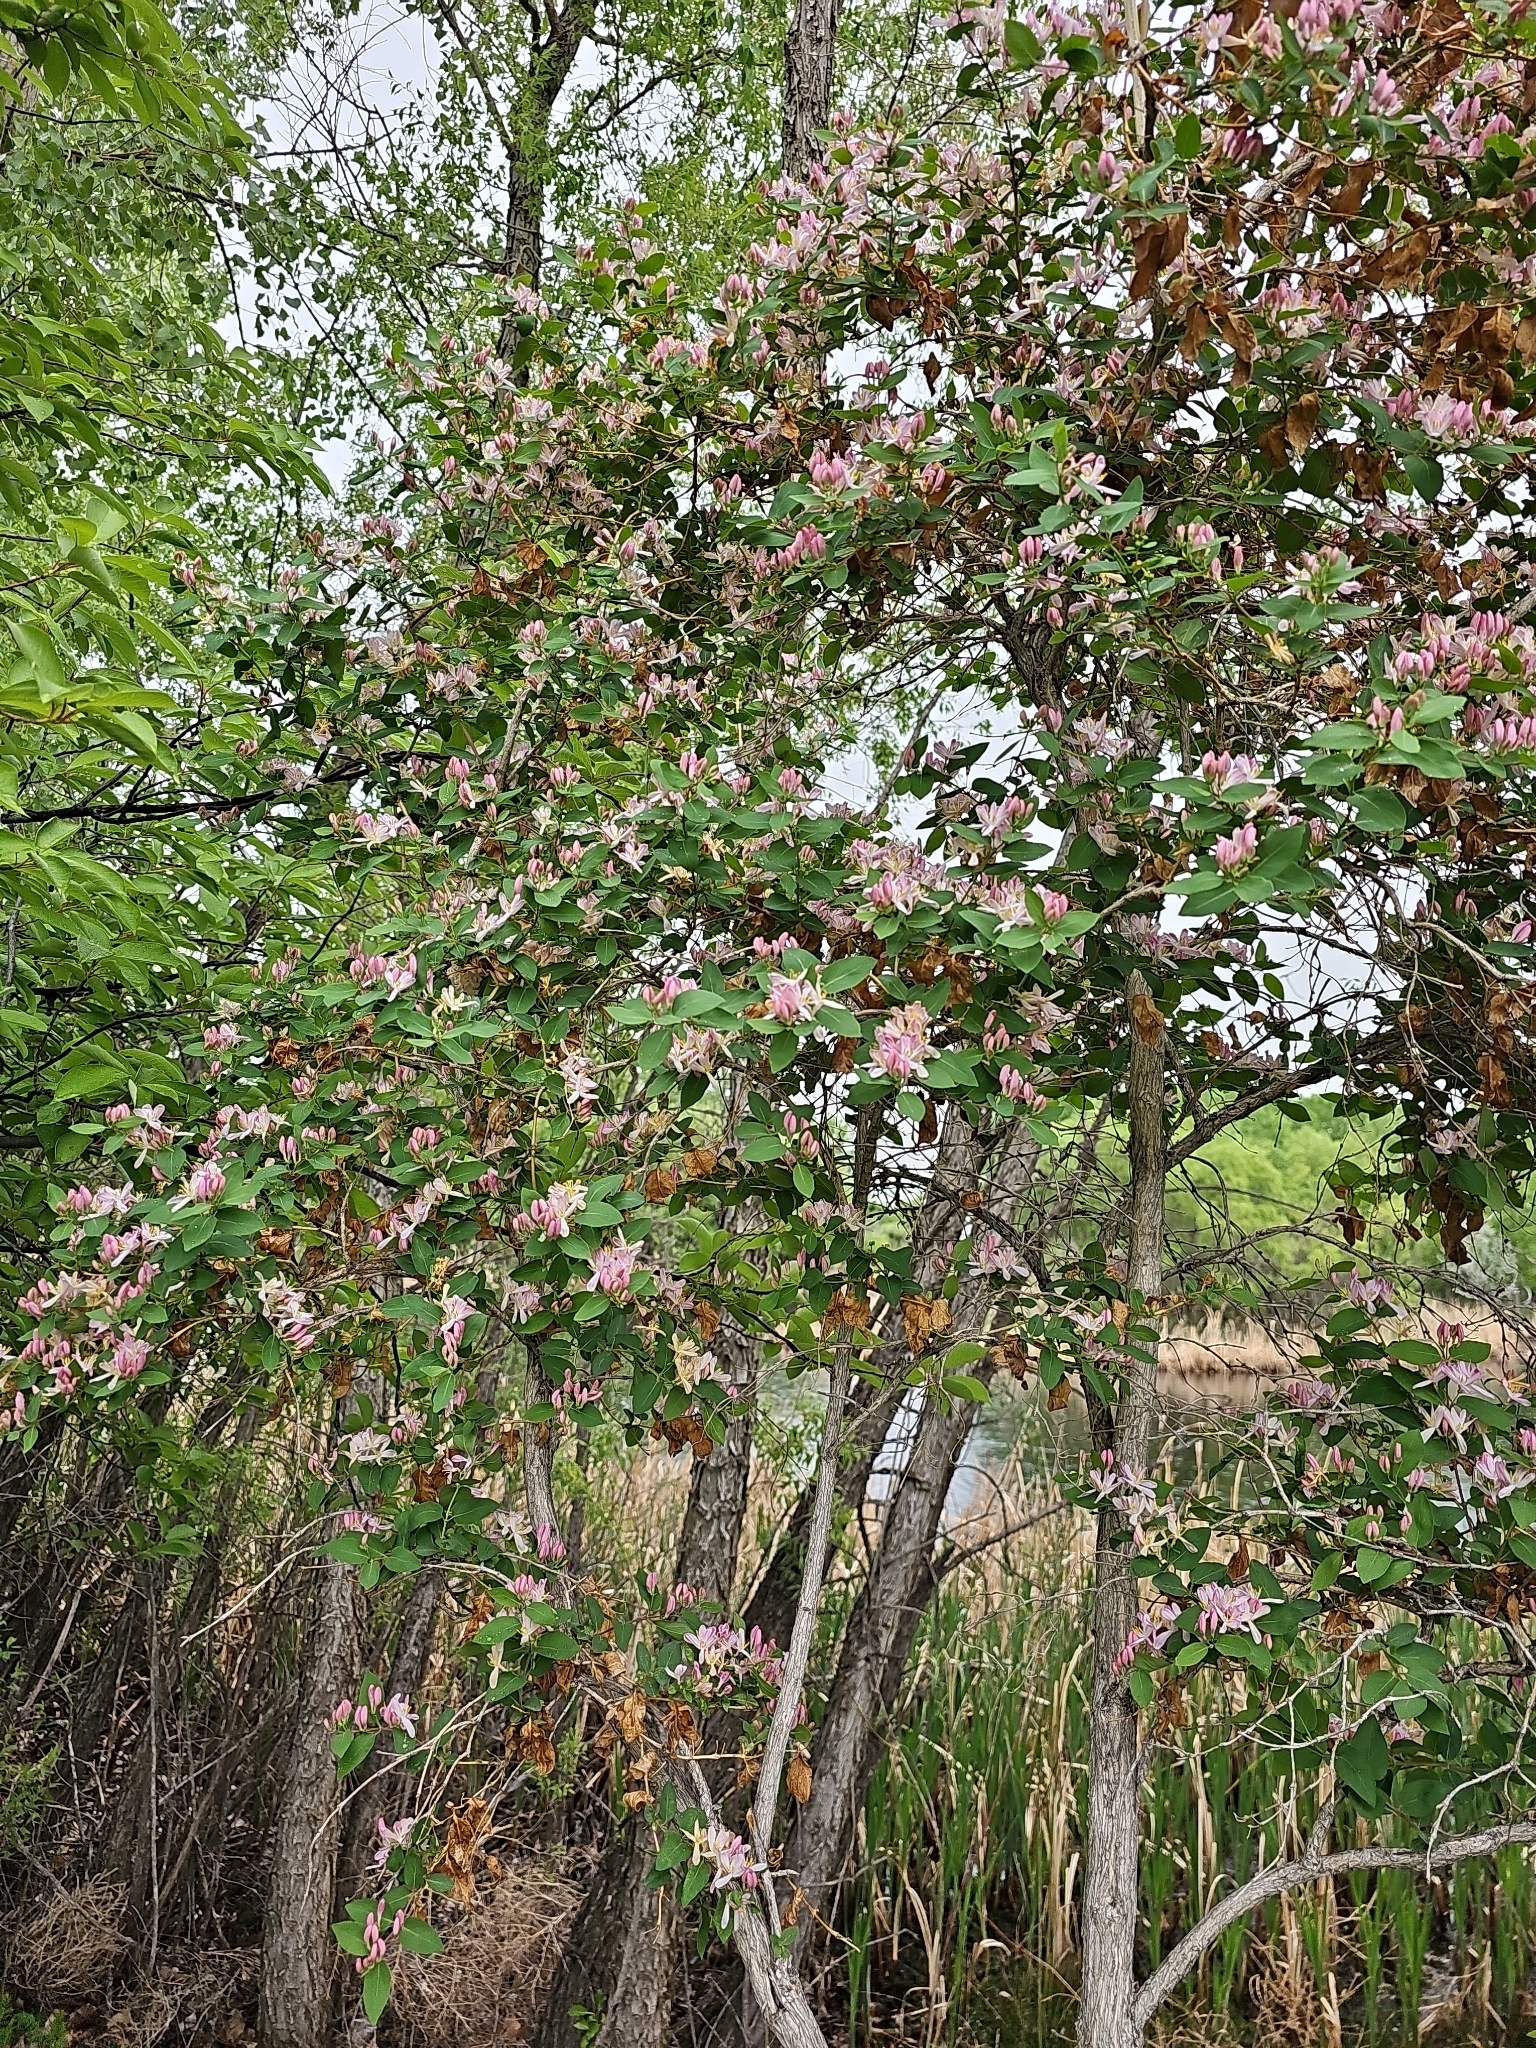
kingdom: Plantae
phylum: Tracheophyta
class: Magnoliopsida
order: Dipsacales
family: Caprifoliaceae
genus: Lonicera
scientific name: Lonicera tatarica
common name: Tatarian honeysuckle
